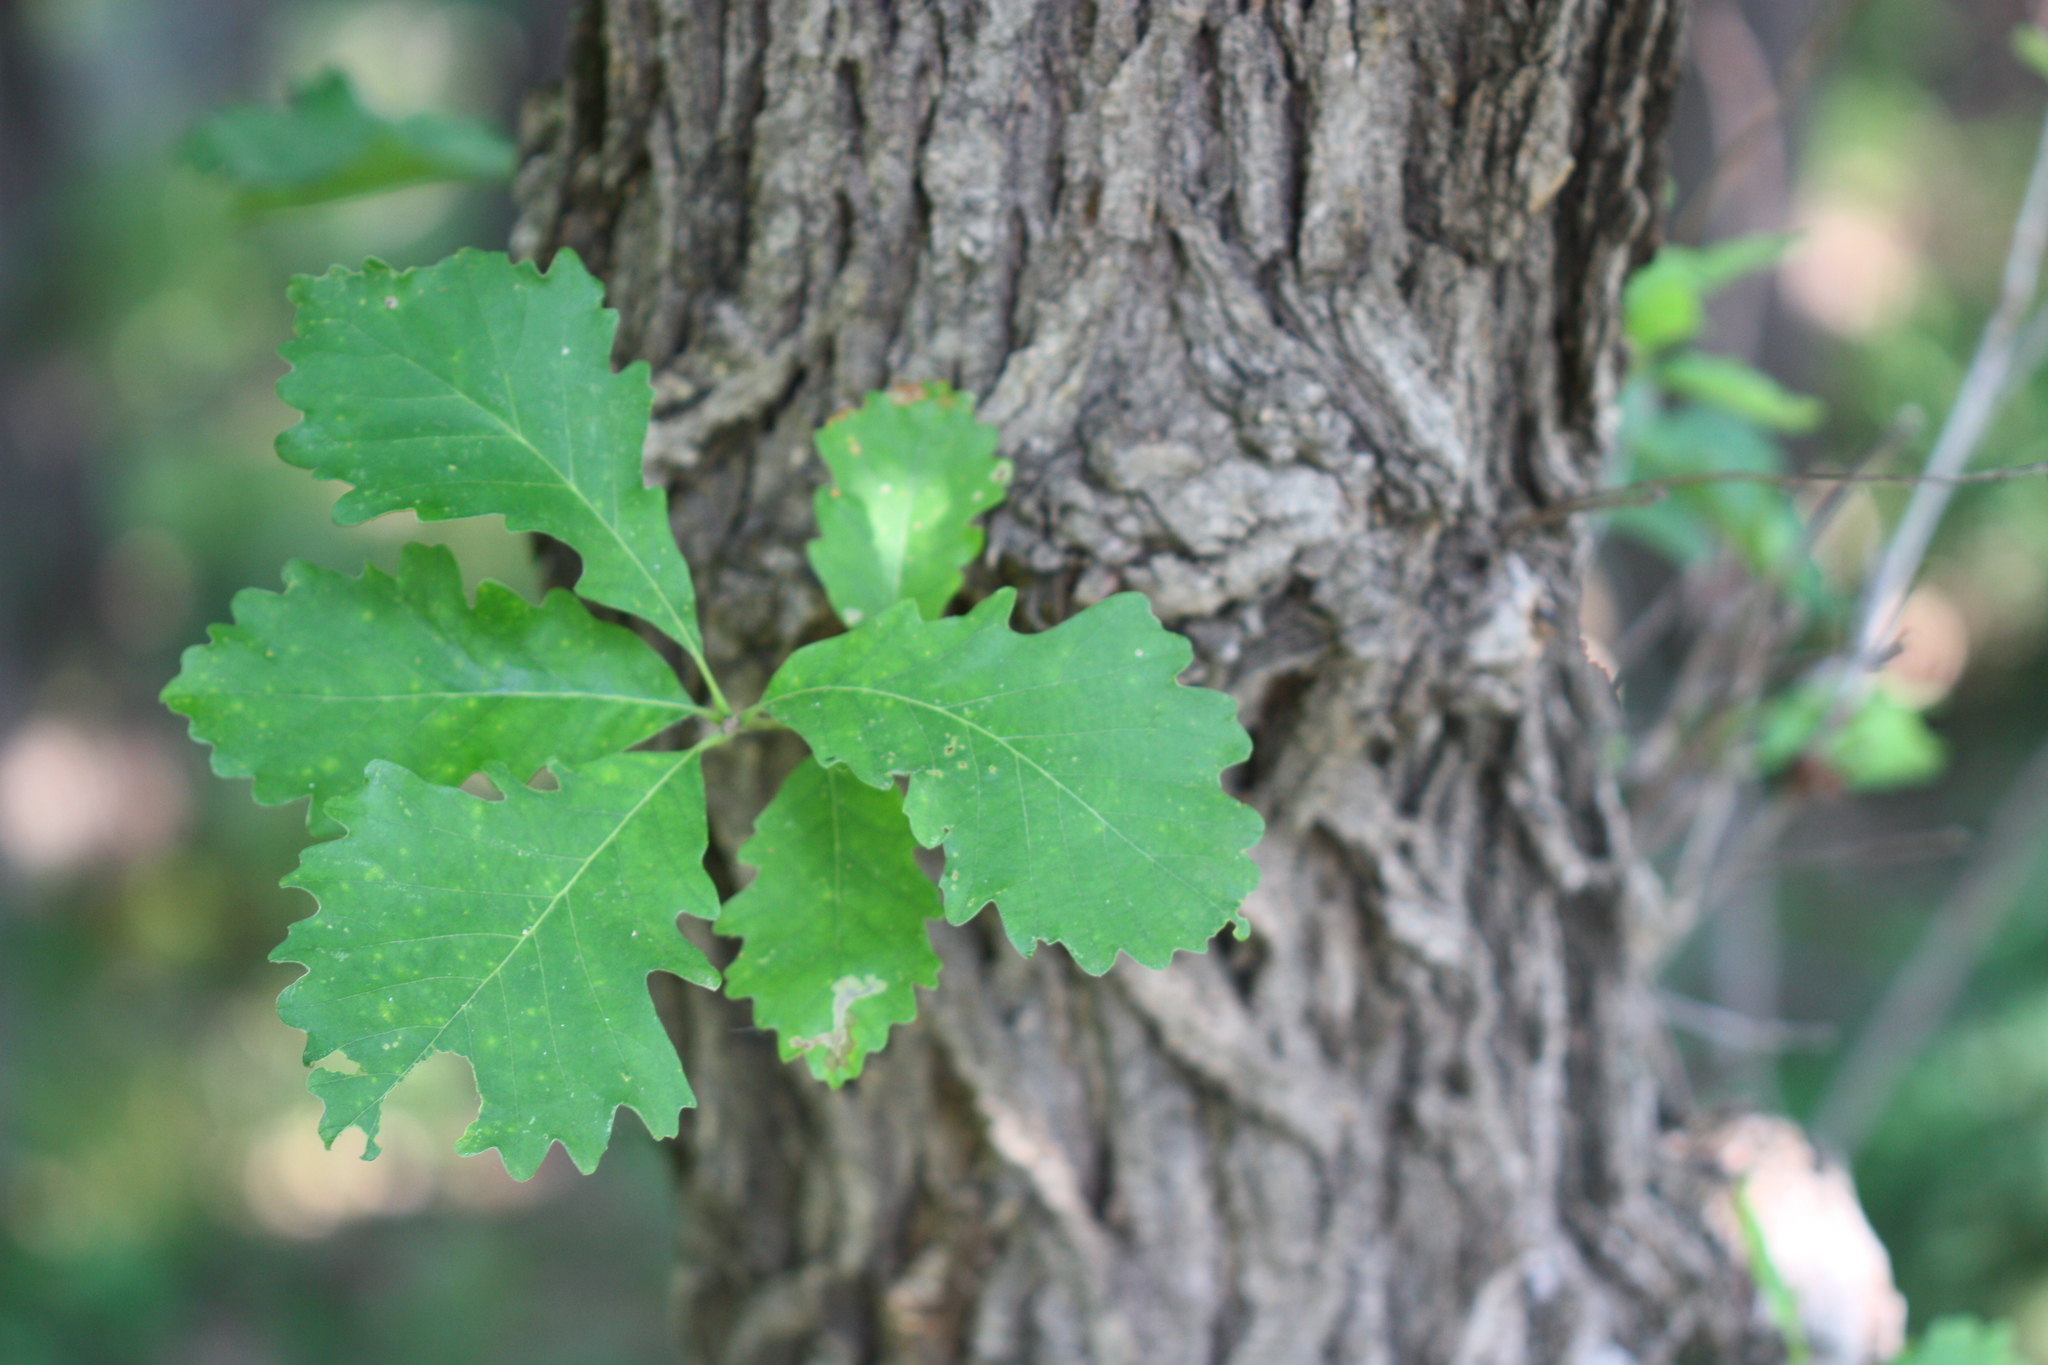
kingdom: Plantae
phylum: Tracheophyta
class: Magnoliopsida
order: Fagales
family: Fagaceae
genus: Quercus
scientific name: Quercus macrocarpa
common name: Bur oak
